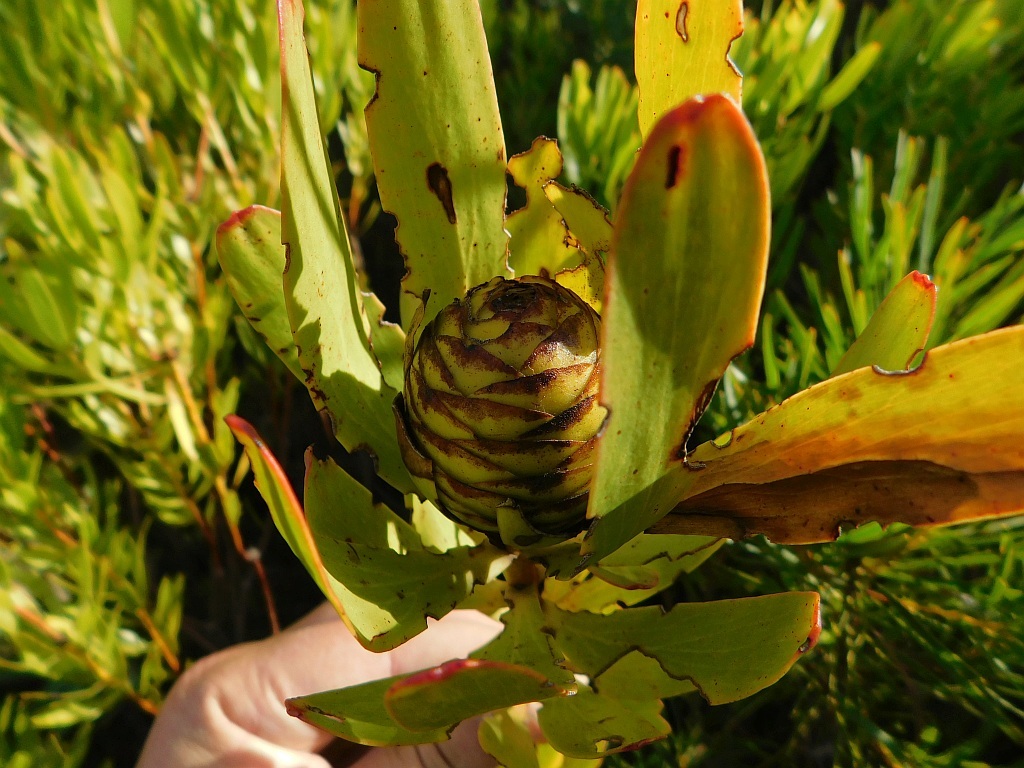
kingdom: Plantae
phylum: Tracheophyta
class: Magnoliopsida
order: Proteales
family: Proteaceae
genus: Leucadendron
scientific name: Leucadendron microcephalum
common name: Oilbract conebush
